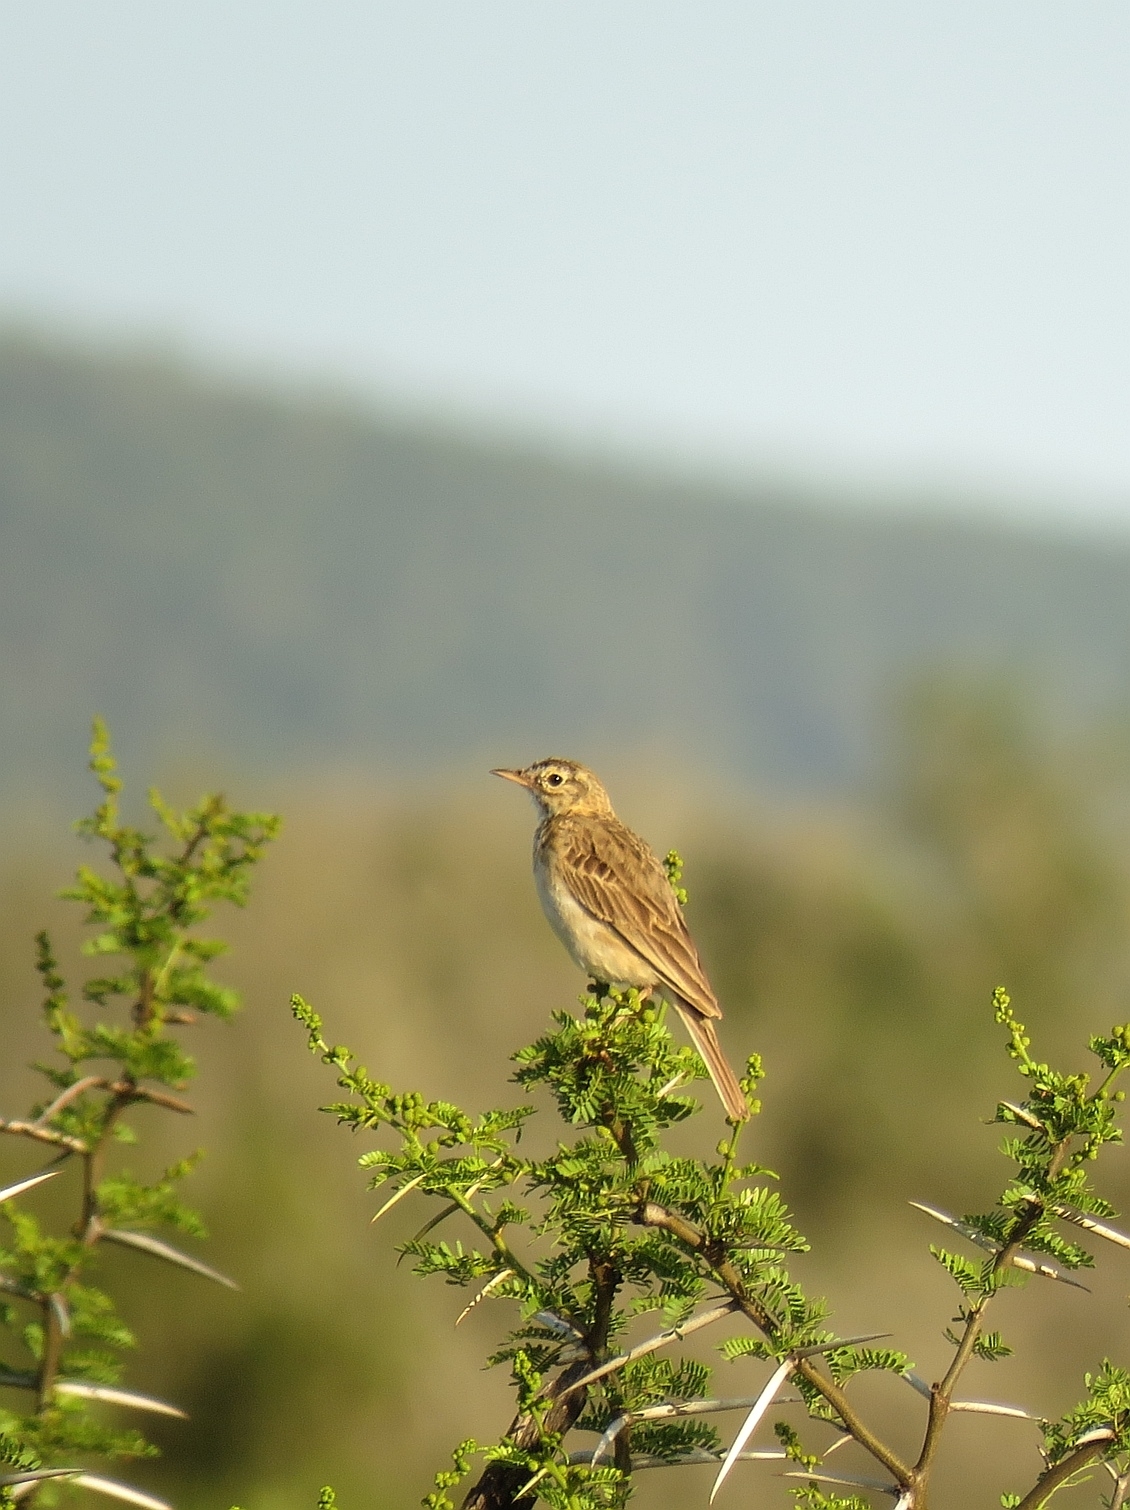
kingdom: Animalia
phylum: Chordata
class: Aves
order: Passeriformes
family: Motacillidae
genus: Anthus
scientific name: Anthus cinnamomeus
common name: African pipit
